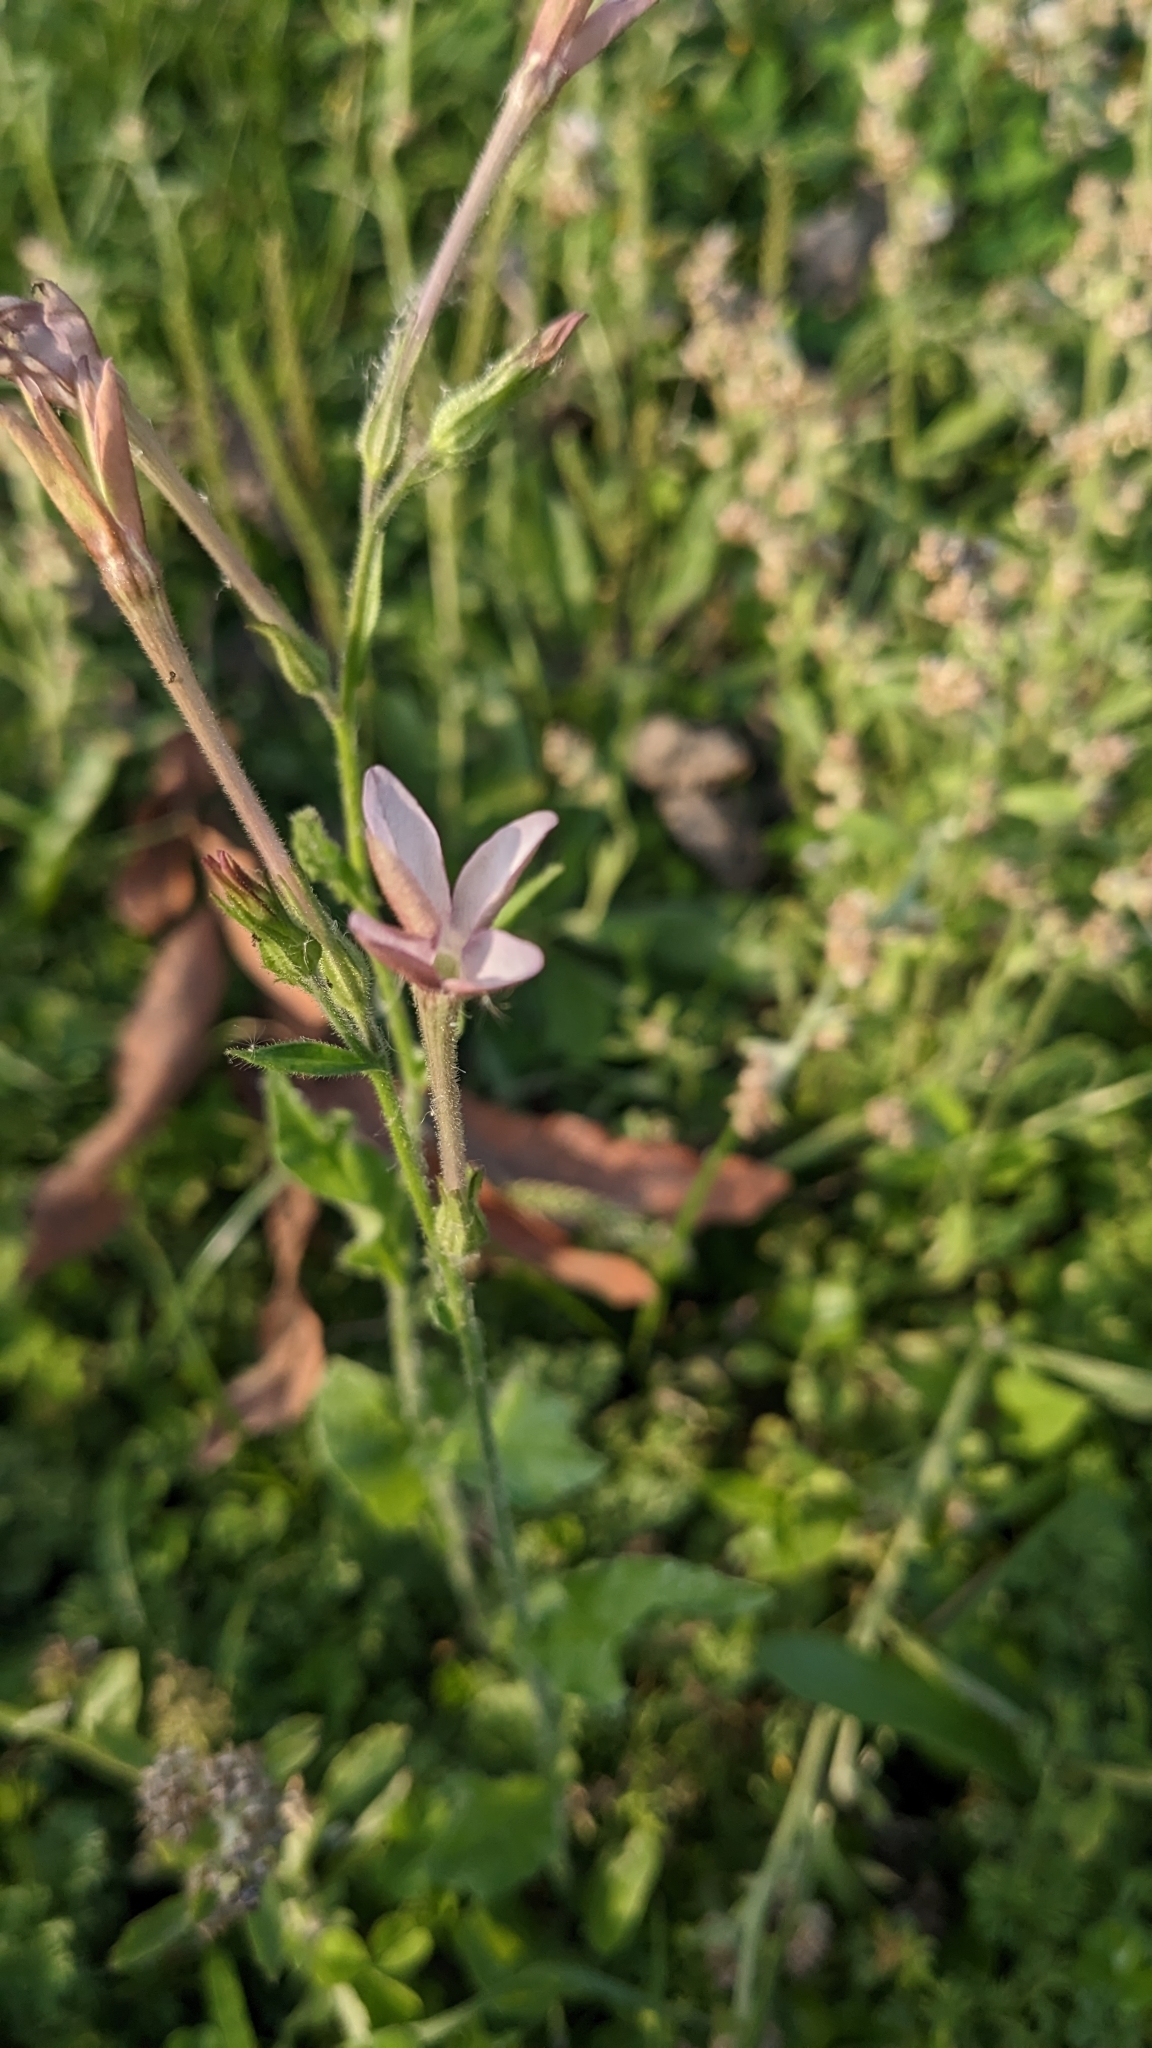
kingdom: Plantae
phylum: Tracheophyta
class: Magnoliopsida
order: Solanales
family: Solanaceae
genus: Nicotiana
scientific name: Nicotiana plumbaginifolia
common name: Tex-mex tobacco
